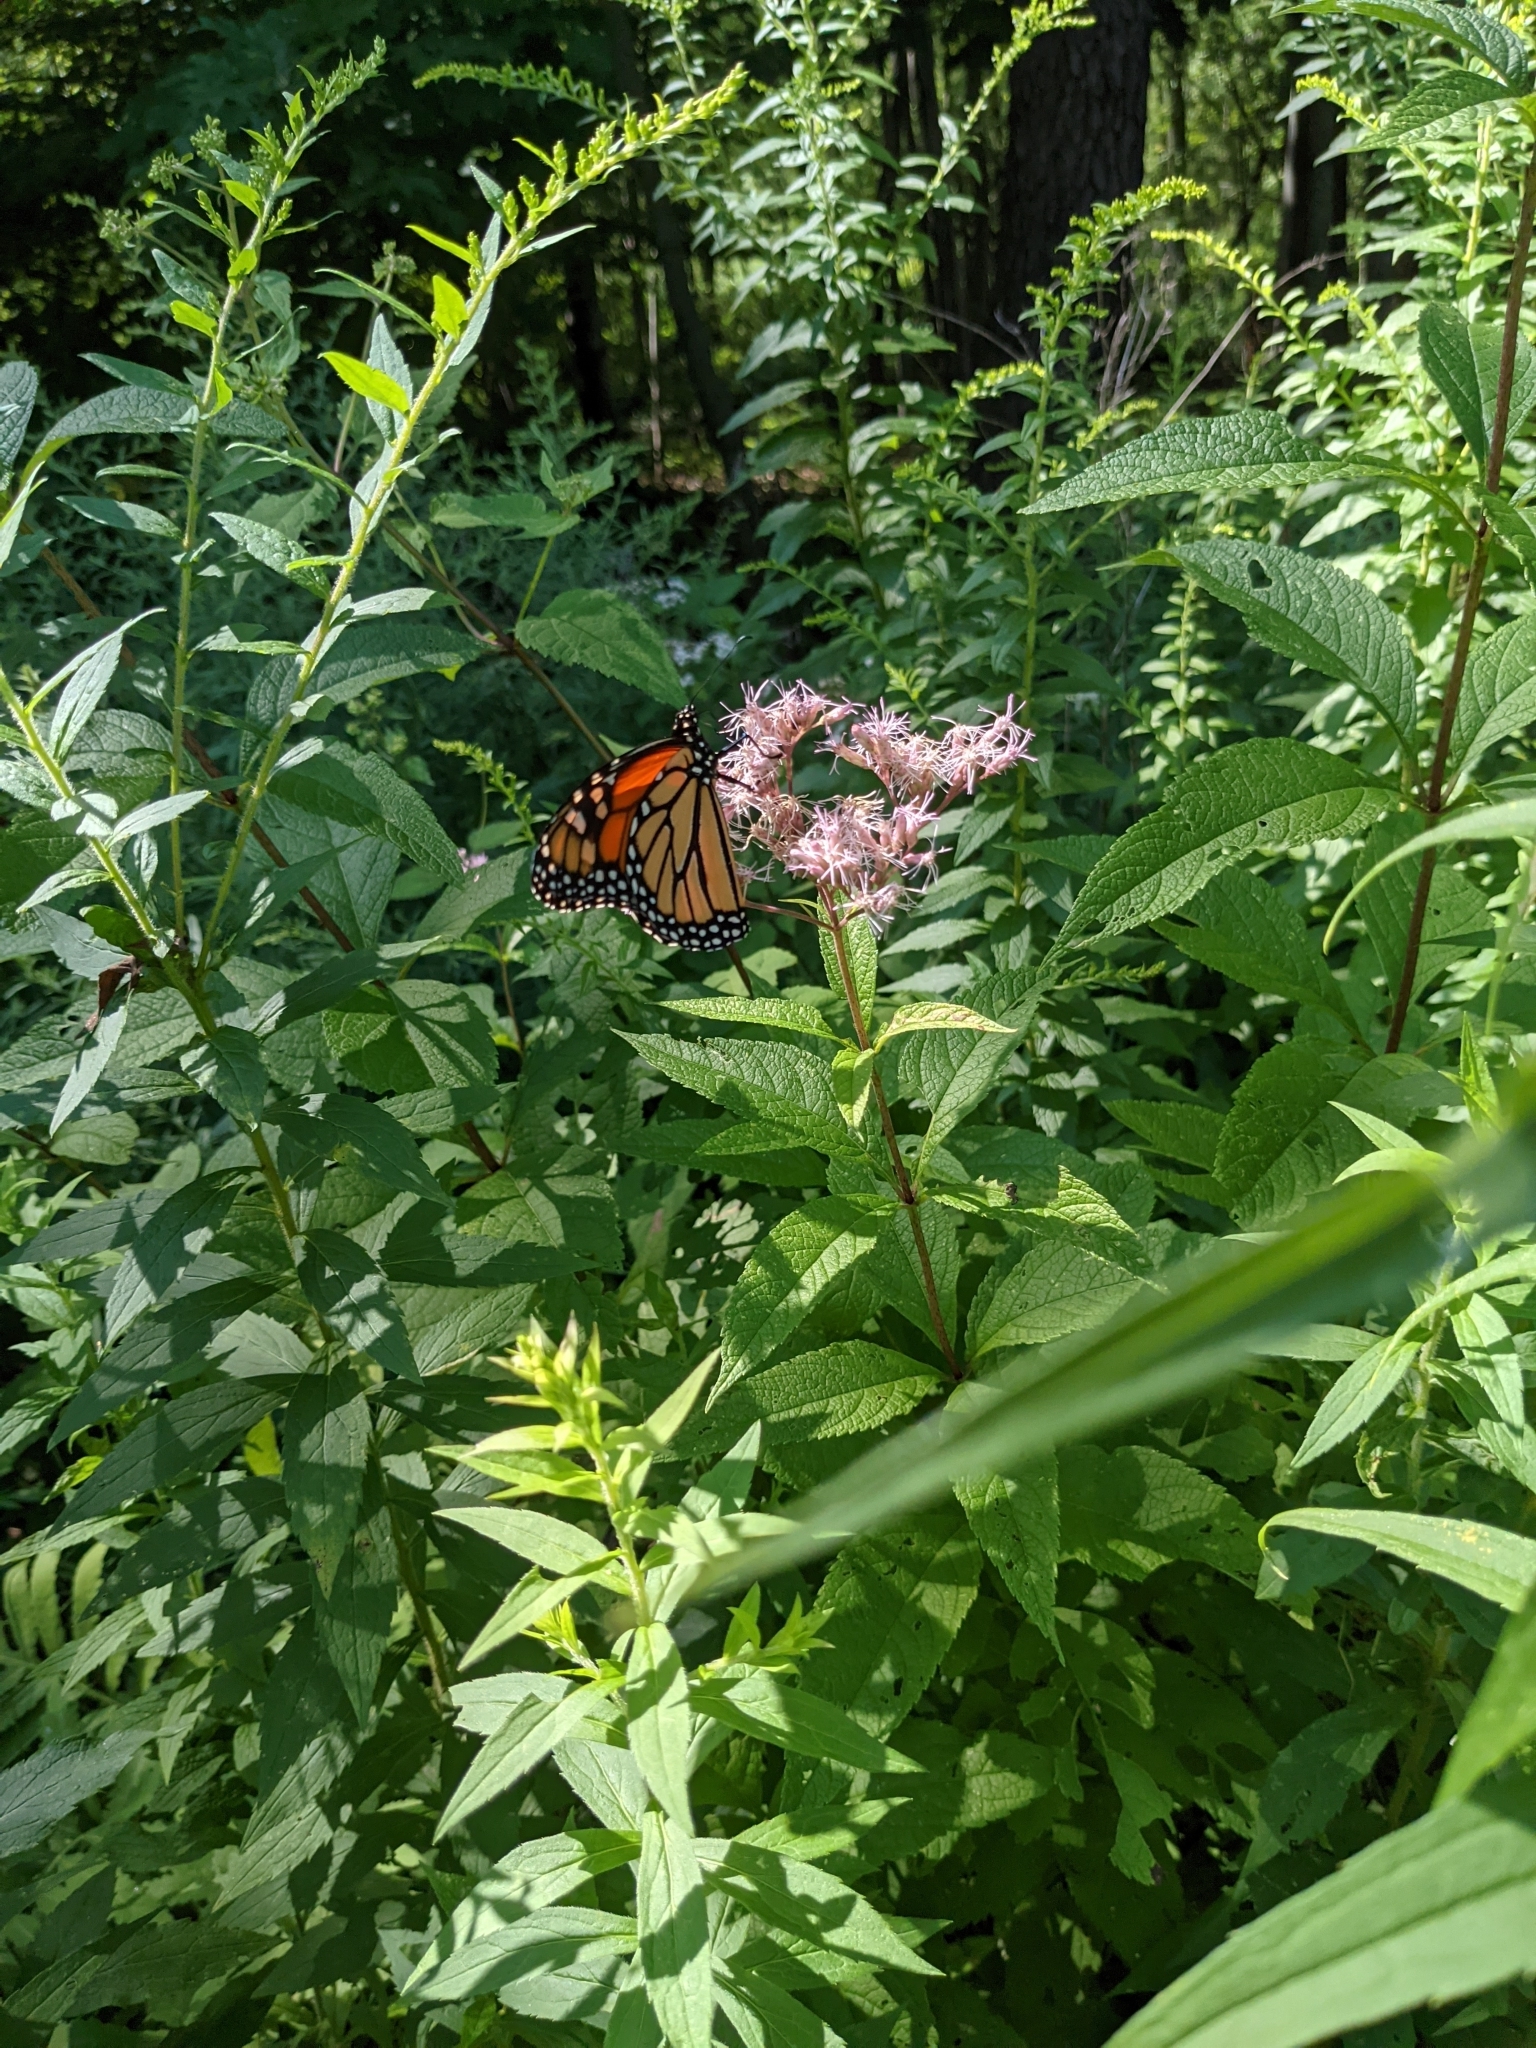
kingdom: Animalia
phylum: Arthropoda
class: Insecta
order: Lepidoptera
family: Nymphalidae
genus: Danaus
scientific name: Danaus plexippus
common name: Monarch
